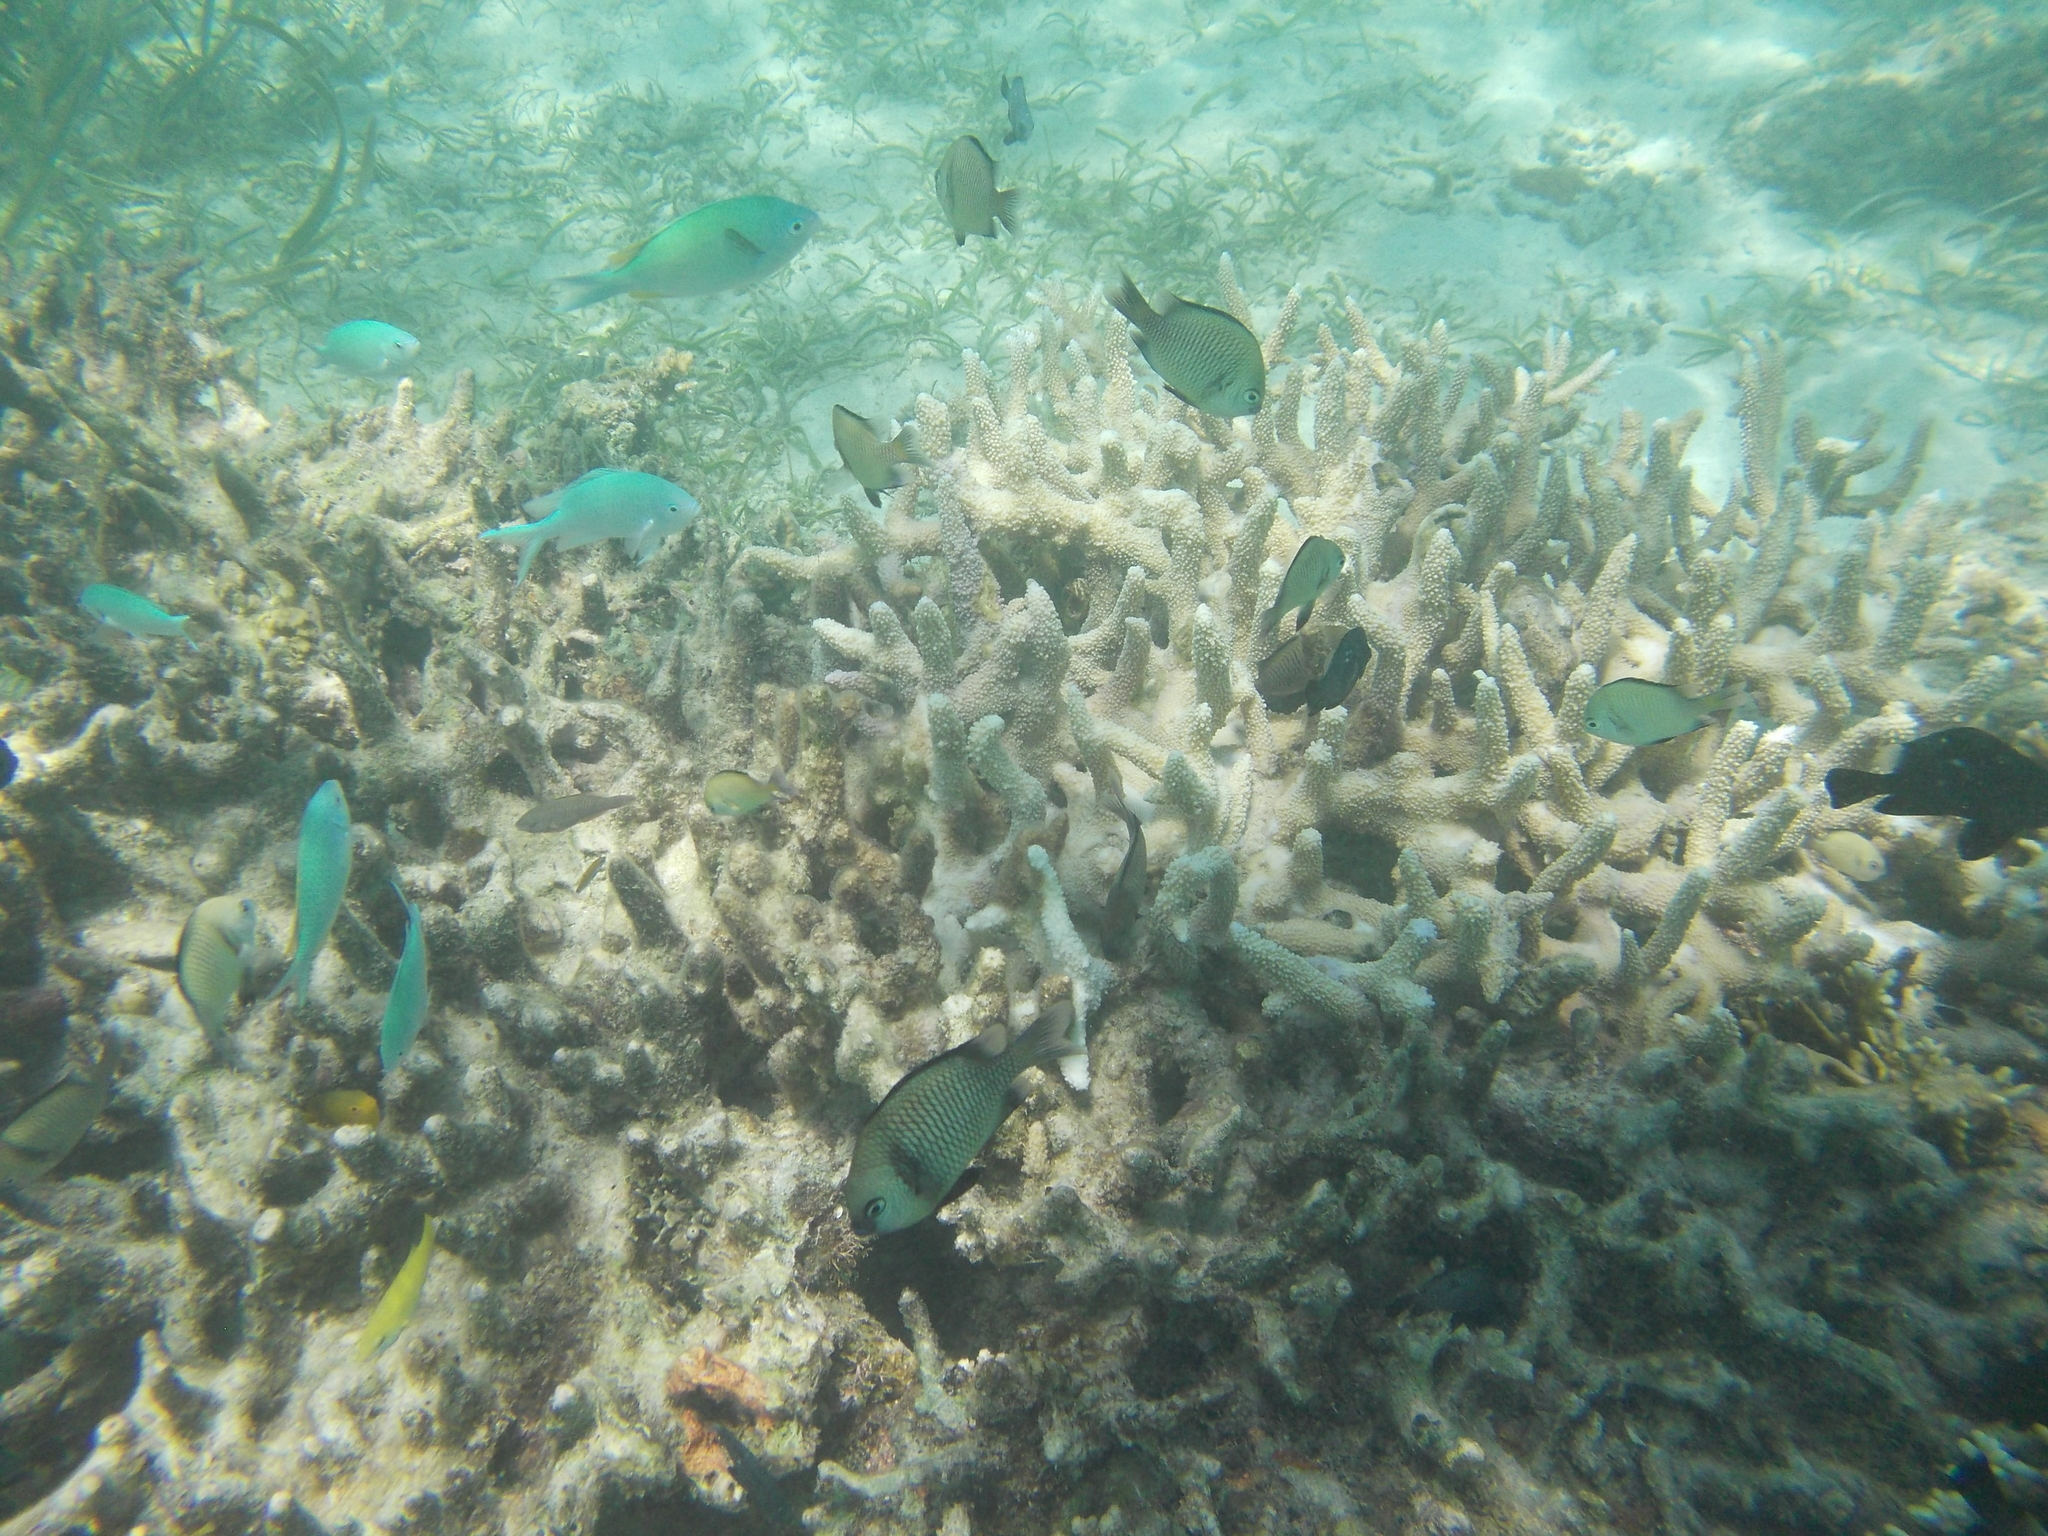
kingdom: Animalia
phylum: Chordata
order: Perciformes
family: Pomacentridae
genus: Dascyllus
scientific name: Dascyllus reticulatus
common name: Reticulated dascyllus
